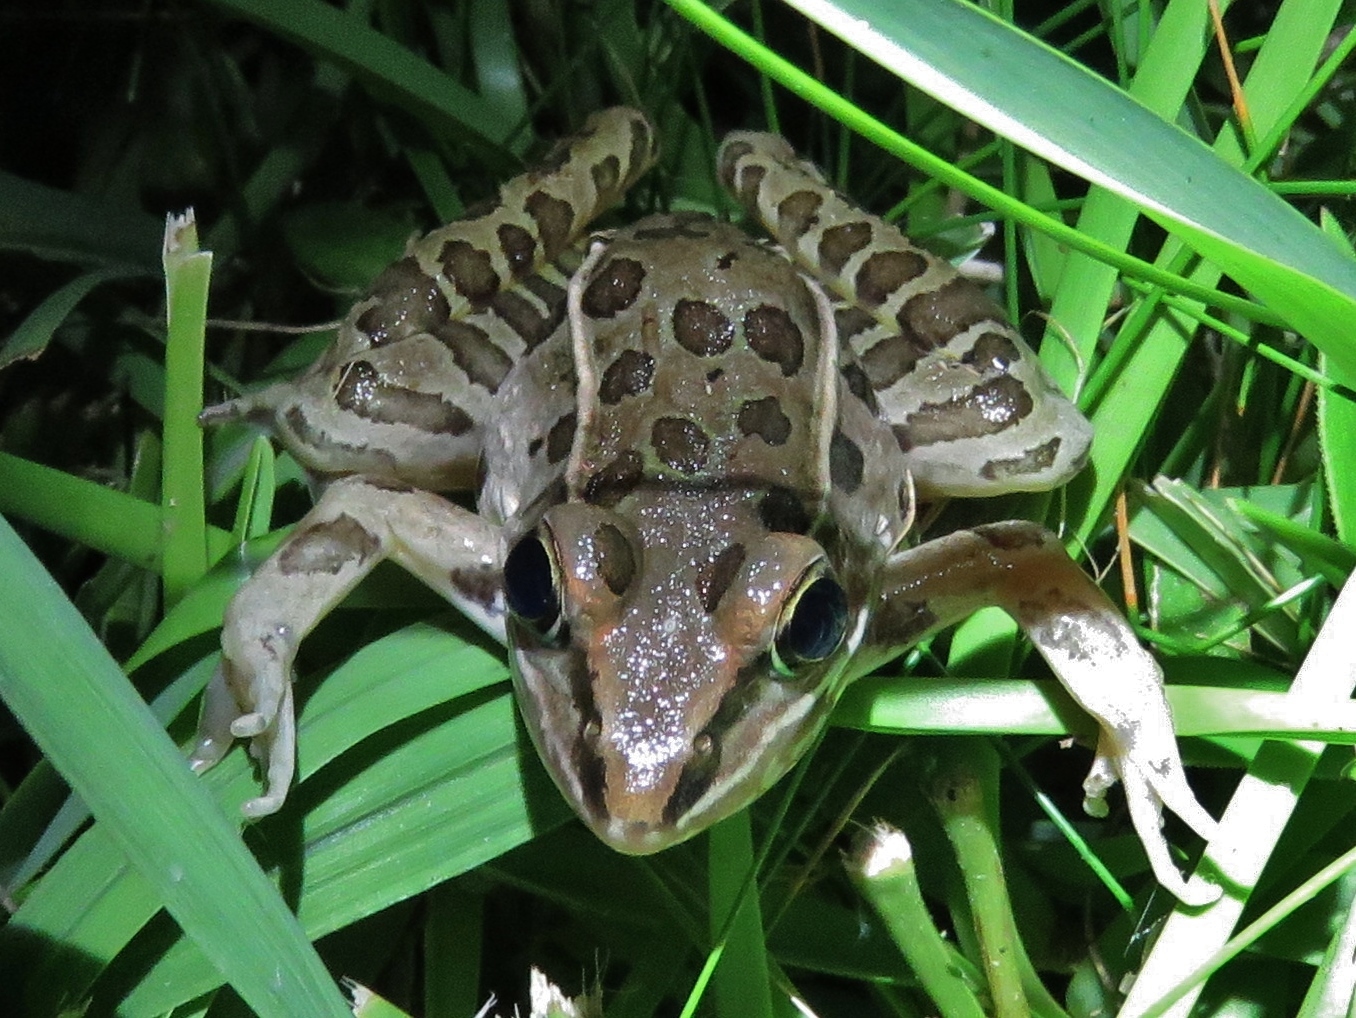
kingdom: Animalia
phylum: Chordata
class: Amphibia
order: Anura
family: Ranidae
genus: Lithobates
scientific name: Lithobates sphenocephalus
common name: Southern leopard frog
